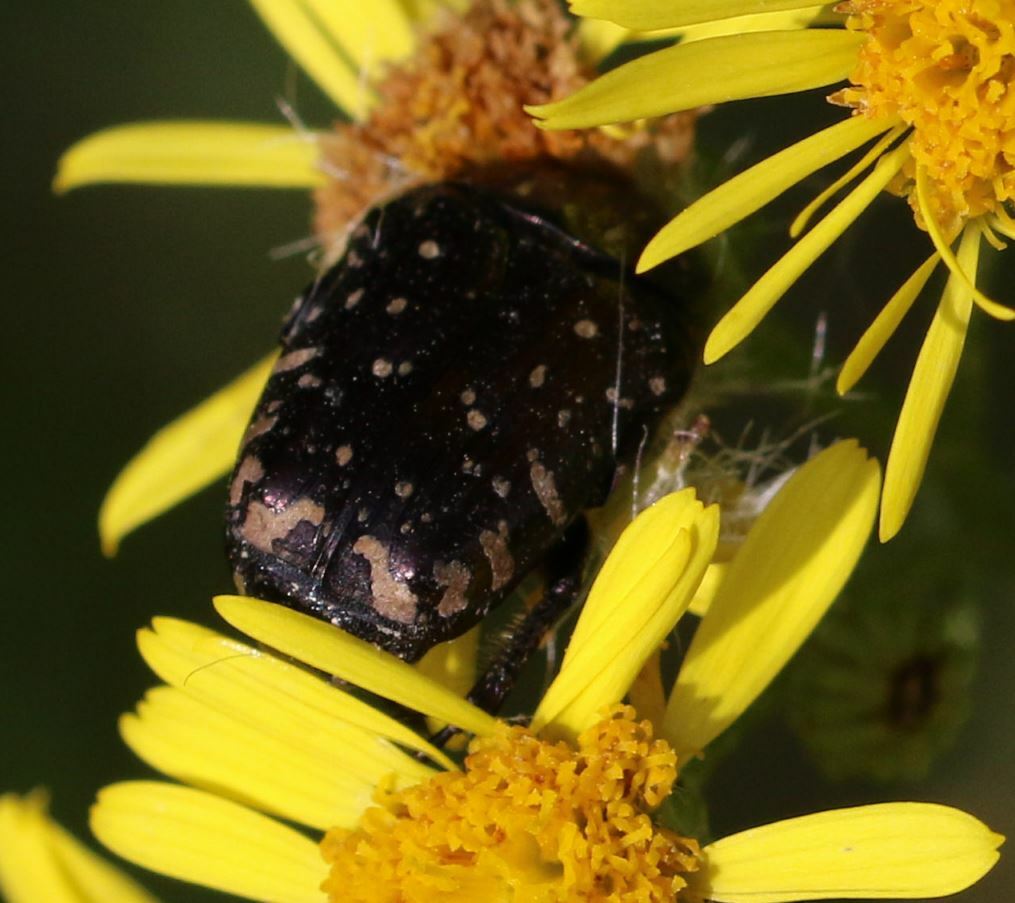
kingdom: Animalia
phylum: Arthropoda
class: Insecta
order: Coleoptera
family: Scarabaeidae
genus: Oxythyrea
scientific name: Oxythyrea funesta
